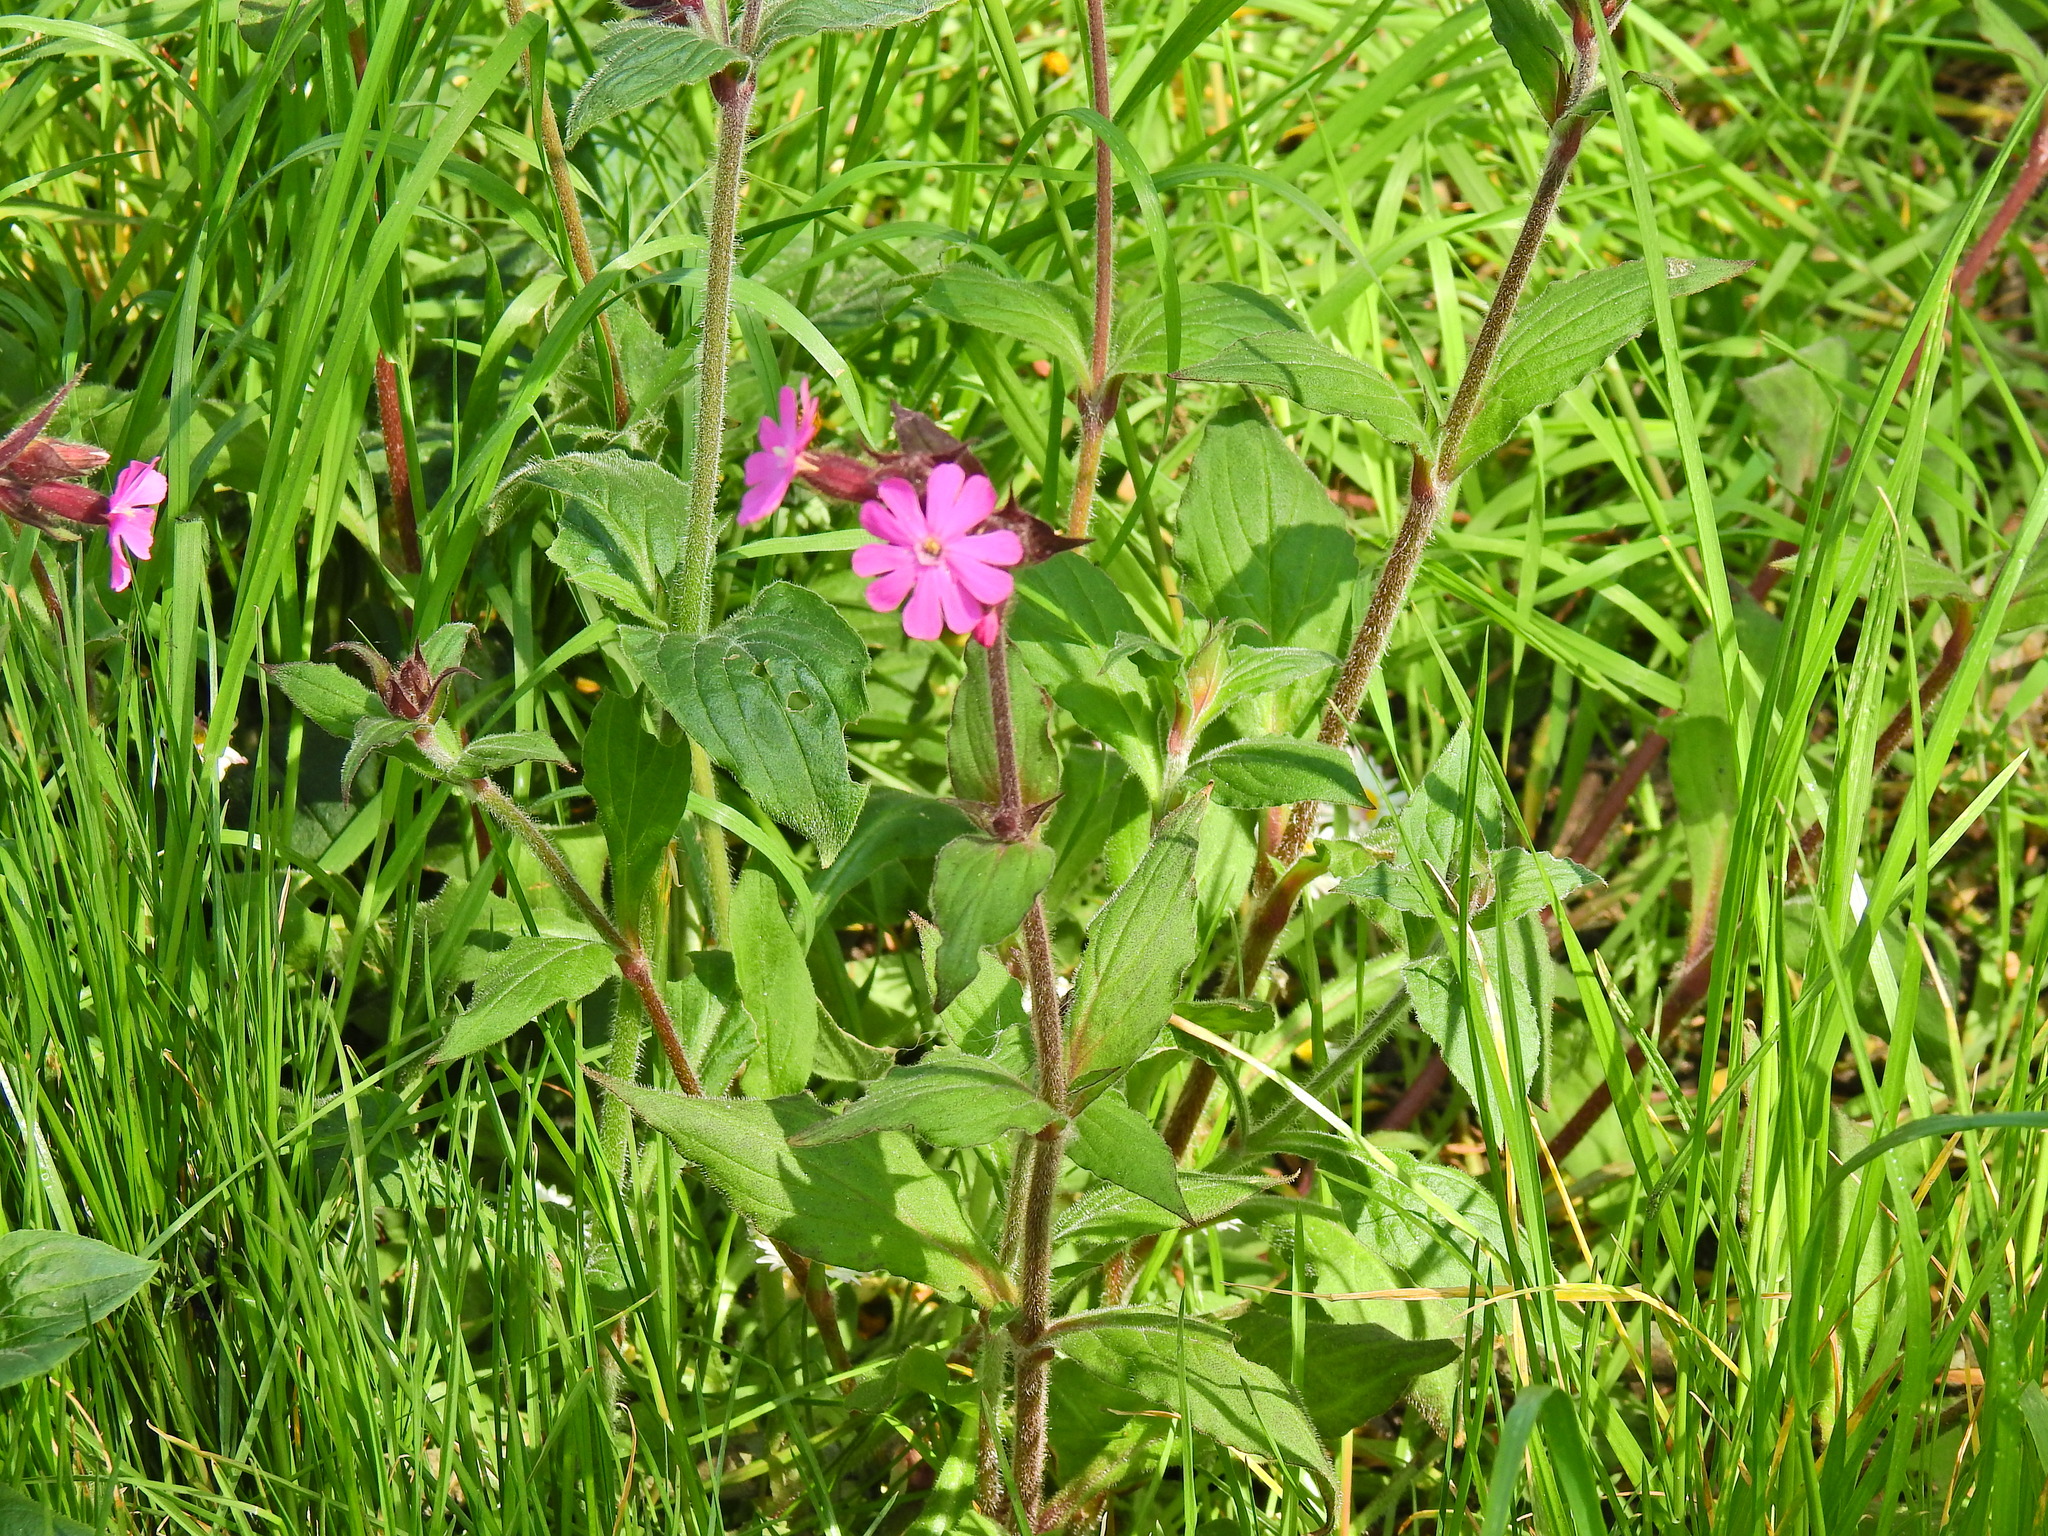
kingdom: Plantae
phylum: Tracheophyta
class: Magnoliopsida
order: Caryophyllales
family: Caryophyllaceae
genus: Silene
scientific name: Silene dioica
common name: Red campion
